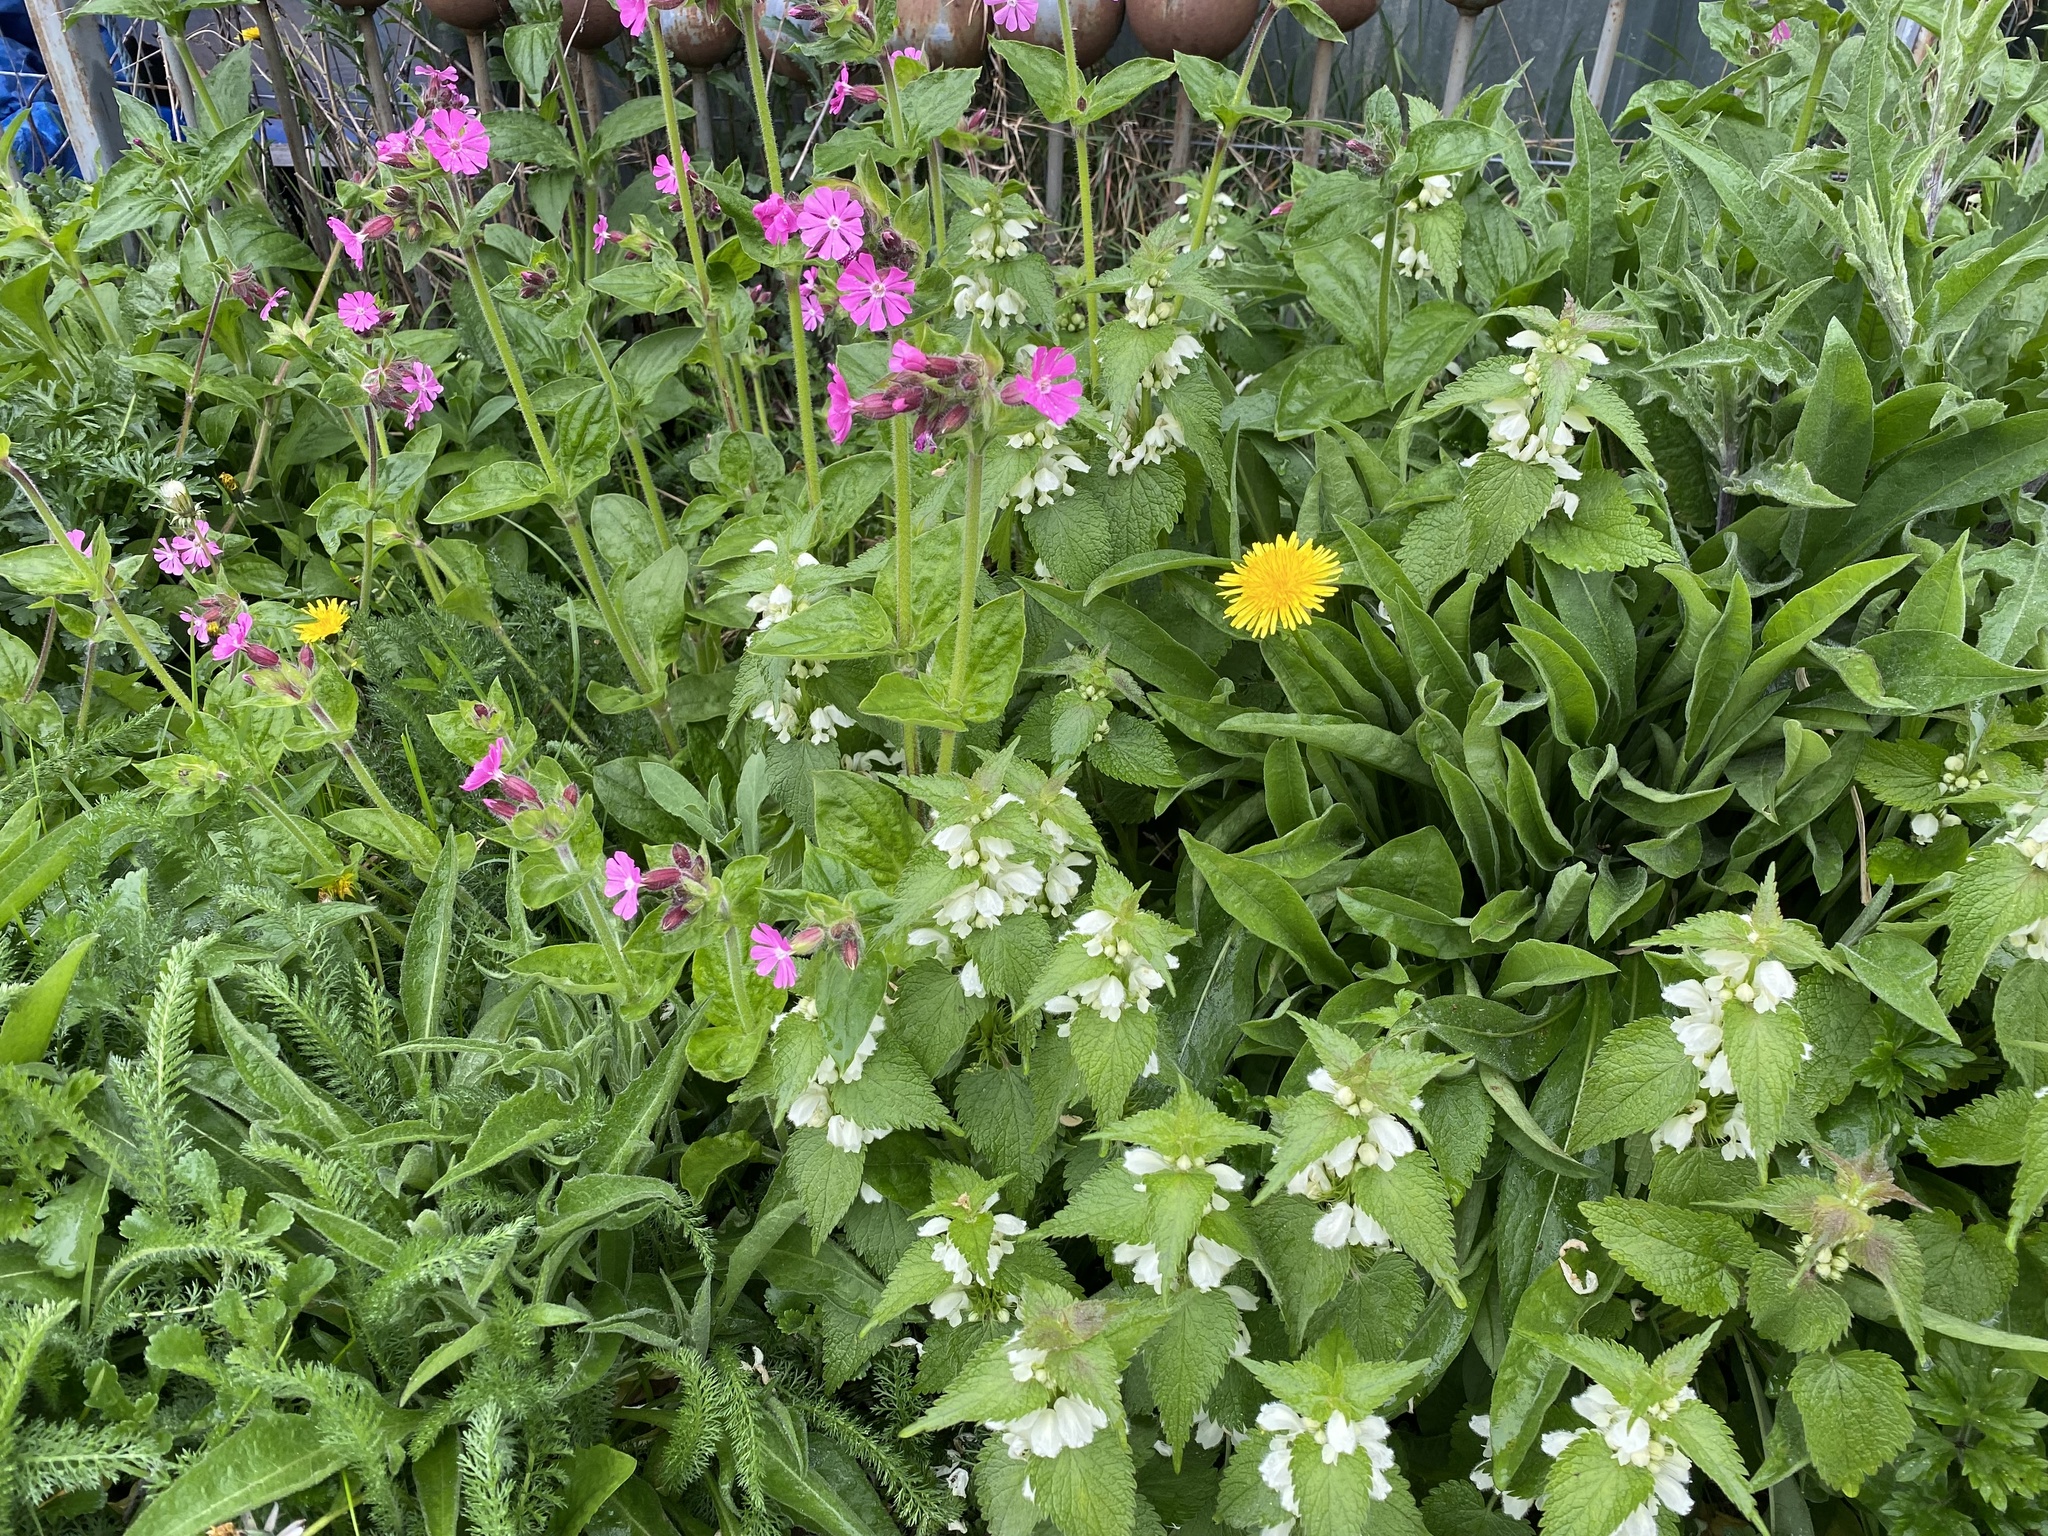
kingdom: Plantae
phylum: Tracheophyta
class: Magnoliopsida
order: Caryophyllales
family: Caryophyllaceae
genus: Silene
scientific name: Silene dioica
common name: Red campion
